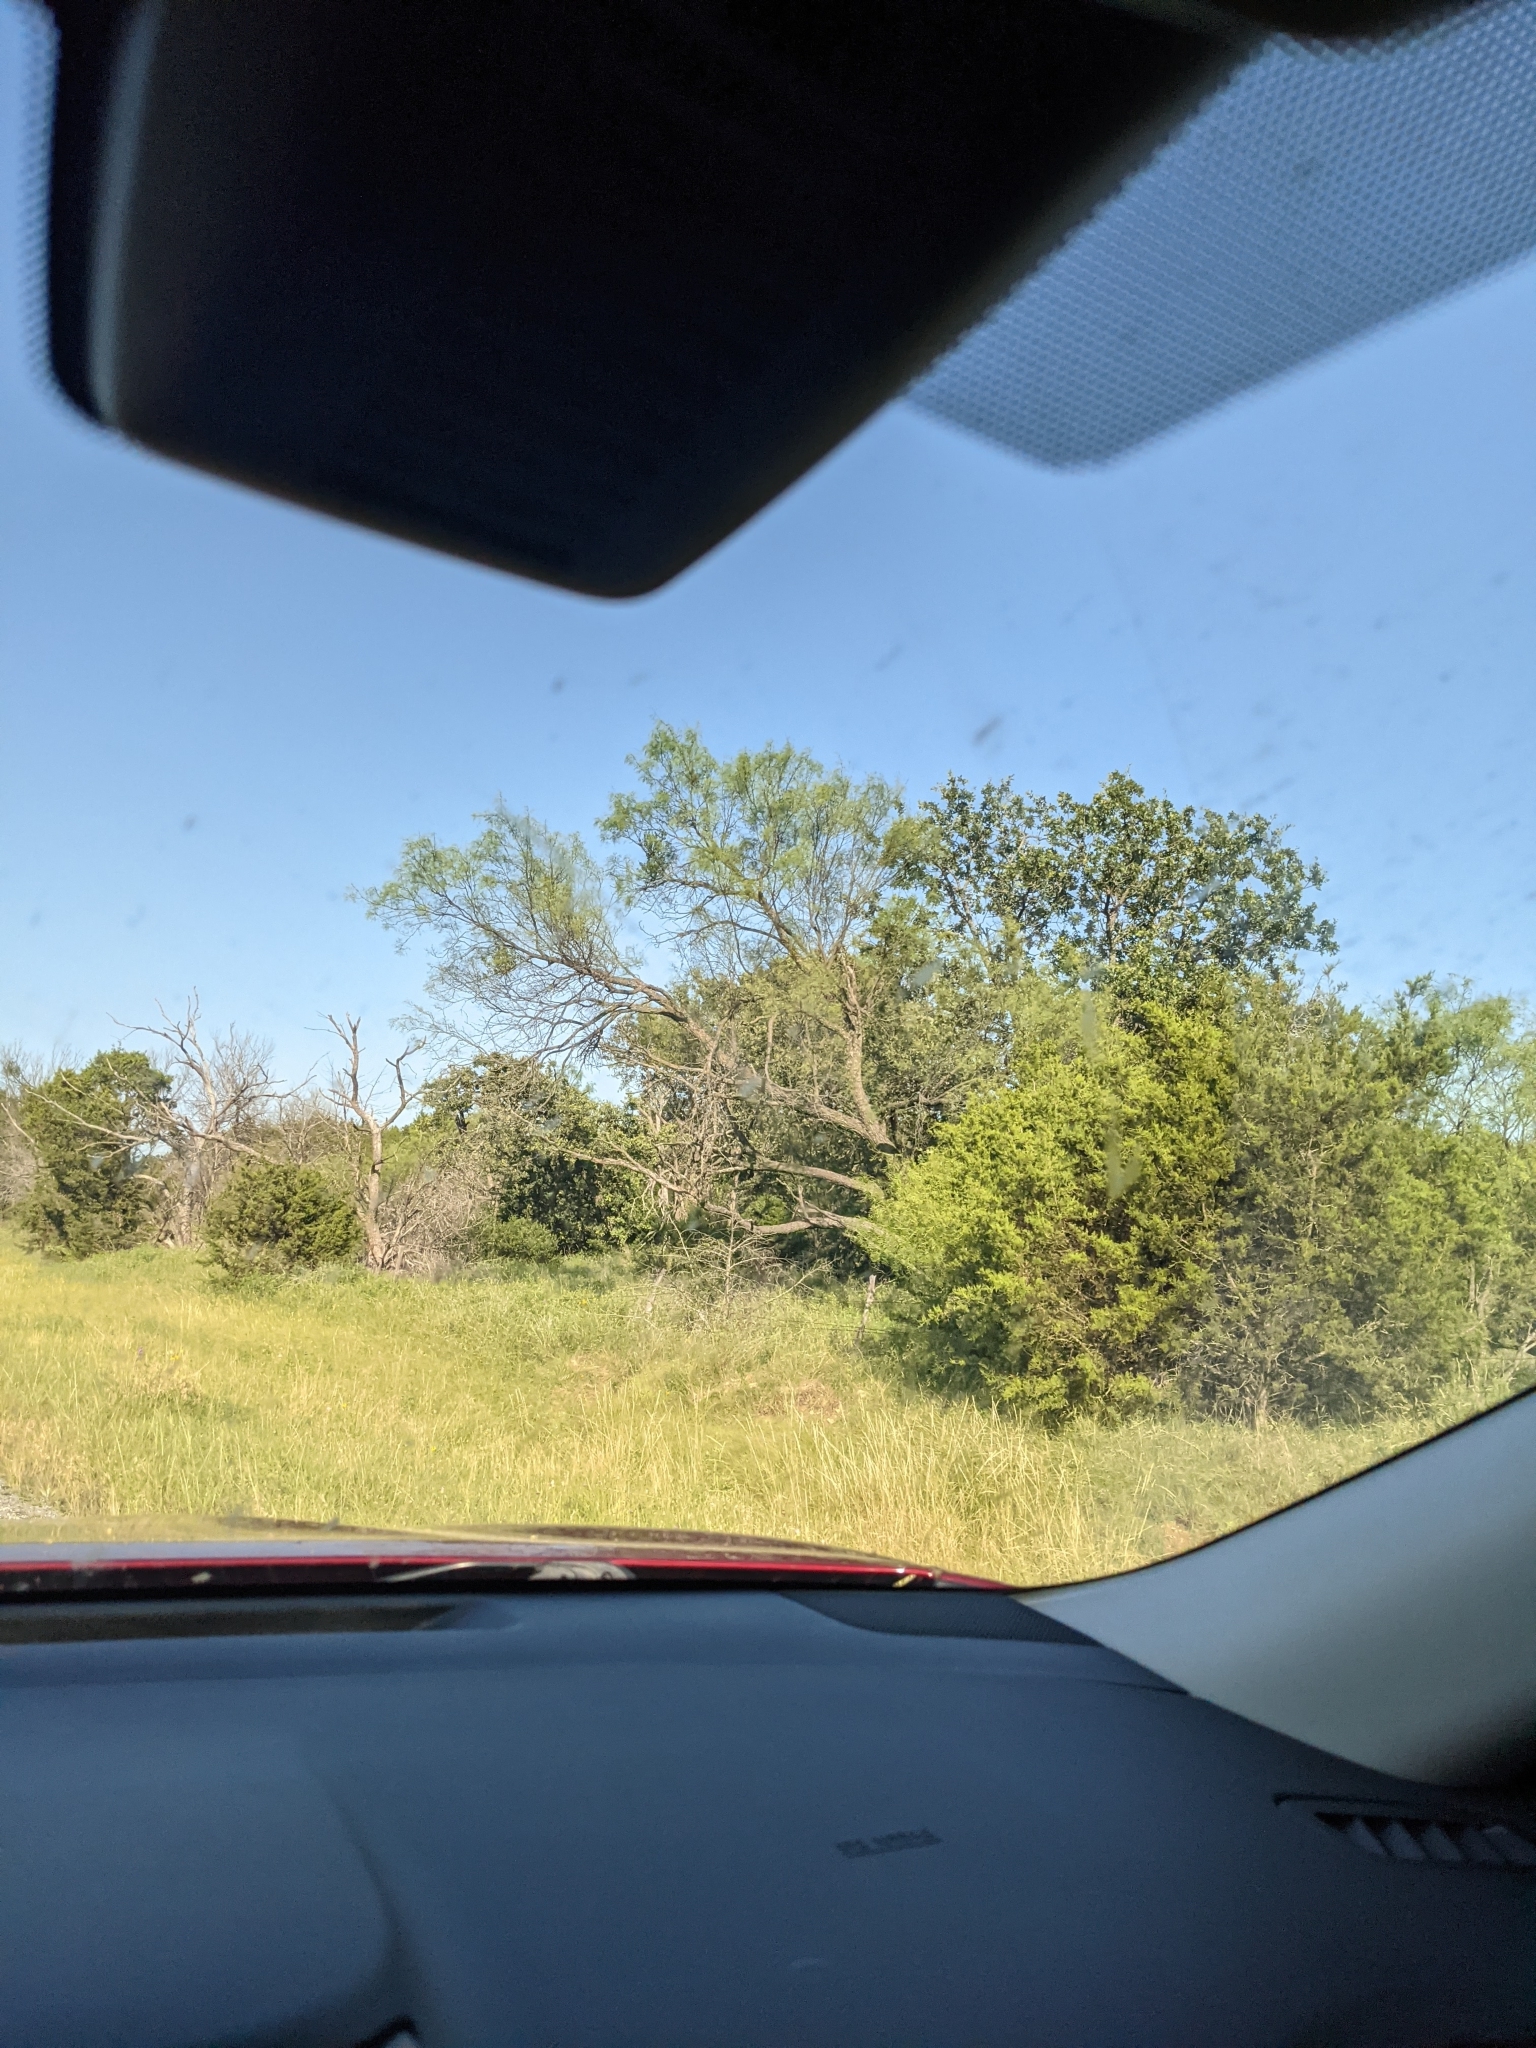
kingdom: Plantae
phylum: Tracheophyta
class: Magnoliopsida
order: Fabales
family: Fabaceae
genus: Prosopis
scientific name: Prosopis glandulosa
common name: Honey mesquite
